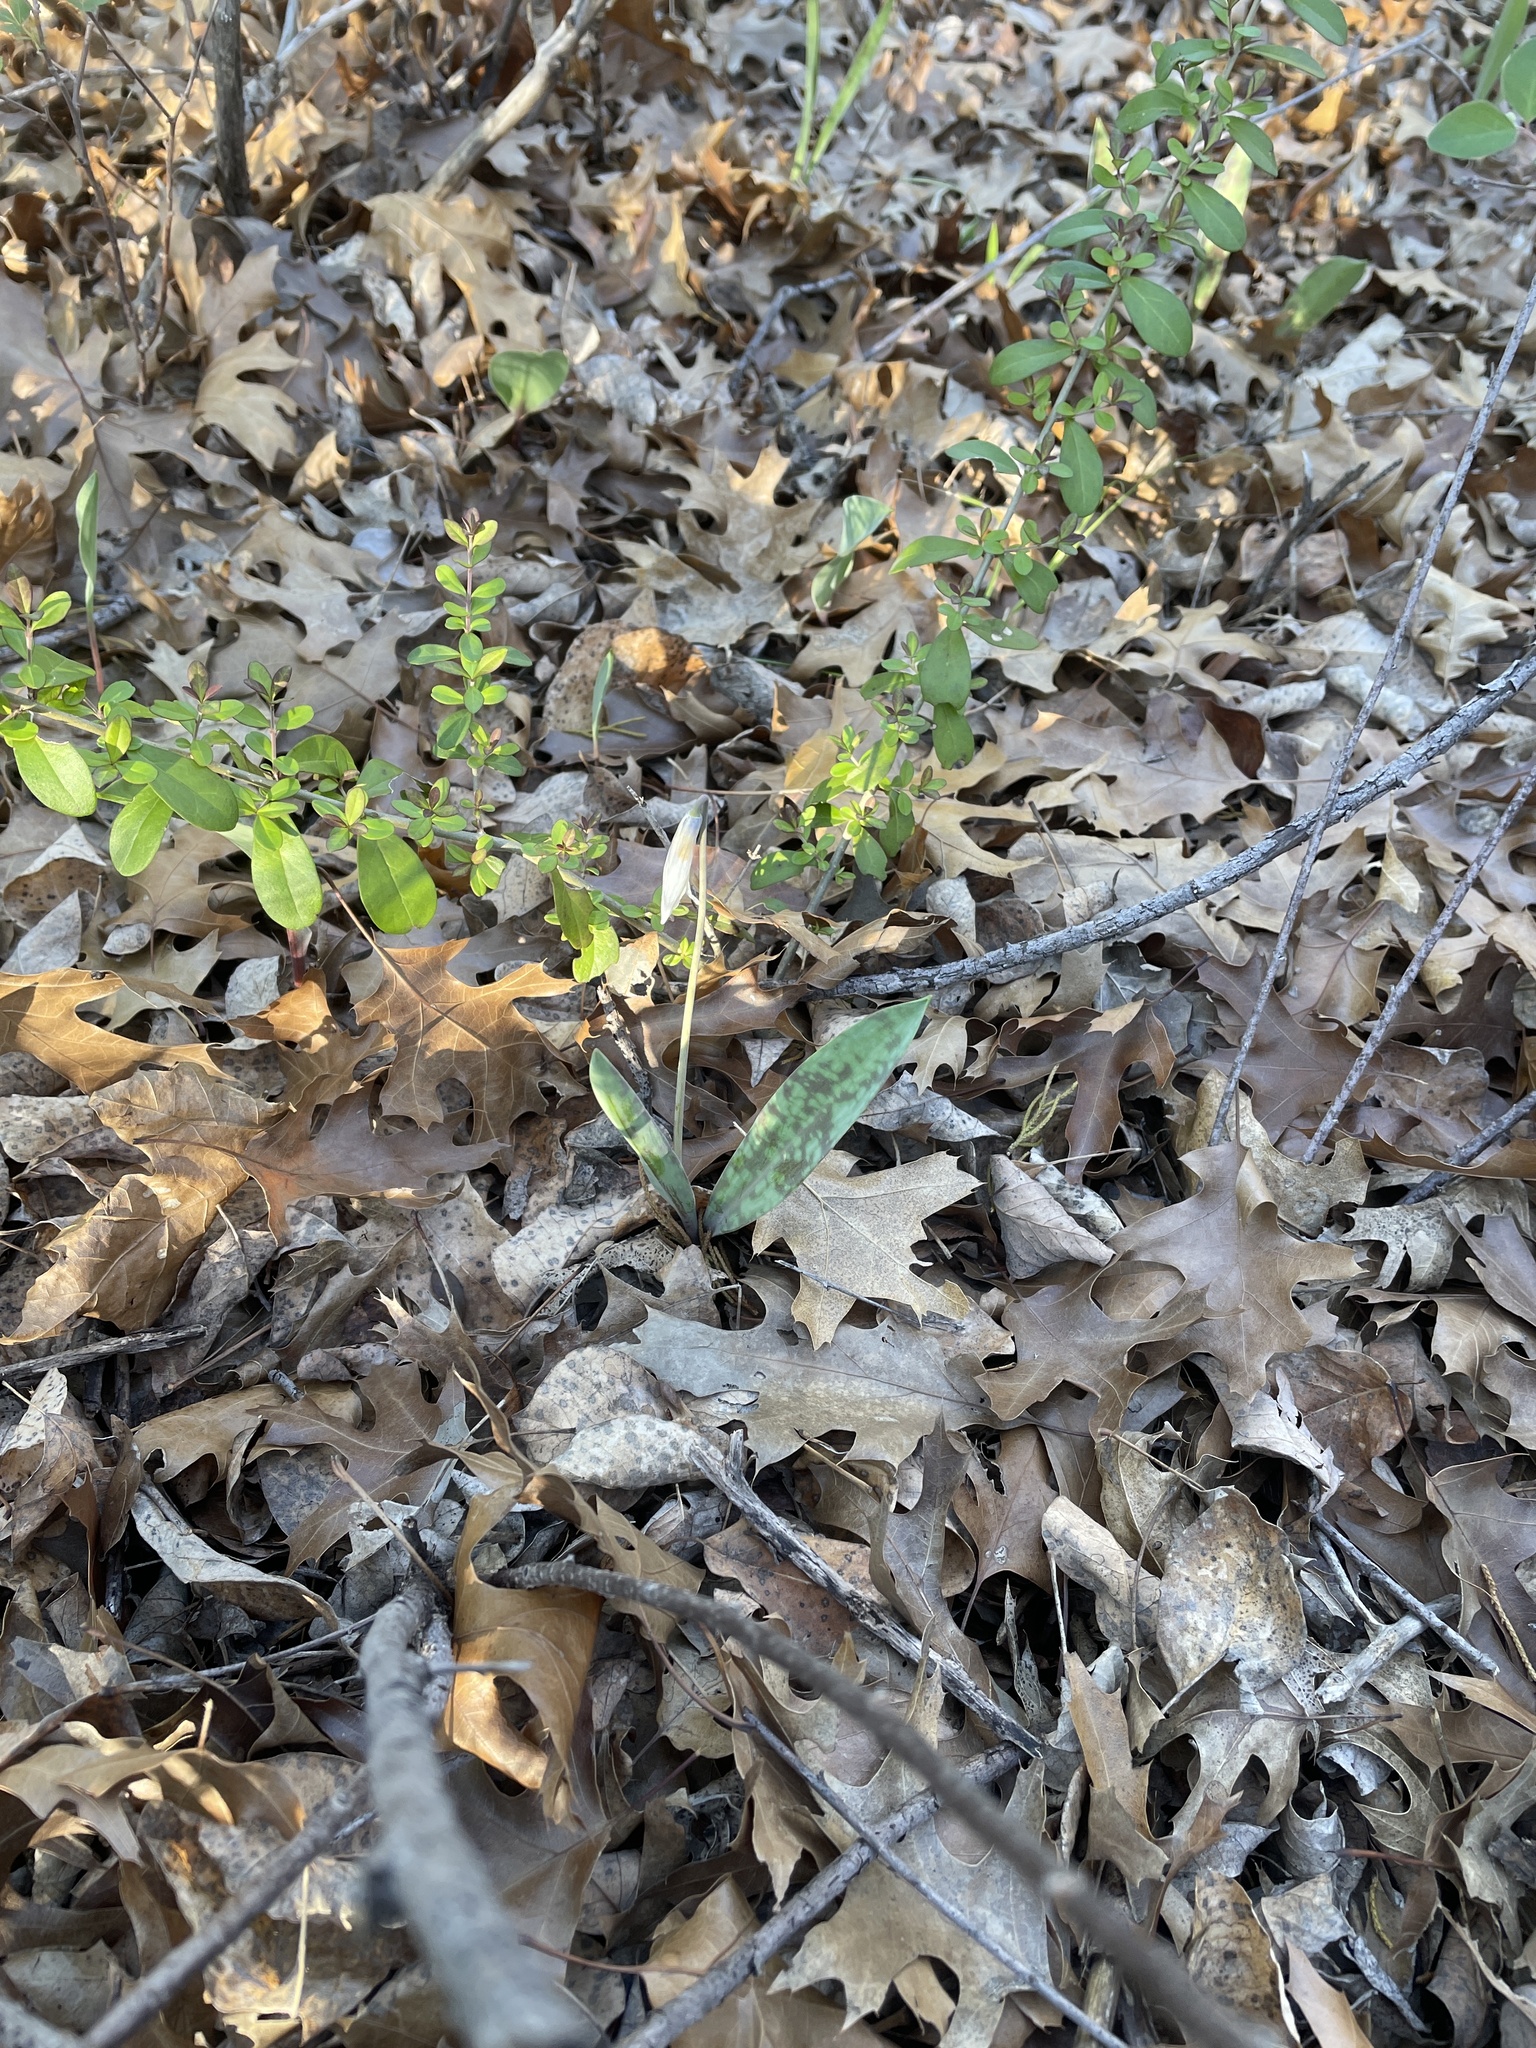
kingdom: Plantae
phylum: Tracheophyta
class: Liliopsida
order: Liliales
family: Liliaceae
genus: Erythronium
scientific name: Erythronium albidum
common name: White trout-lily
